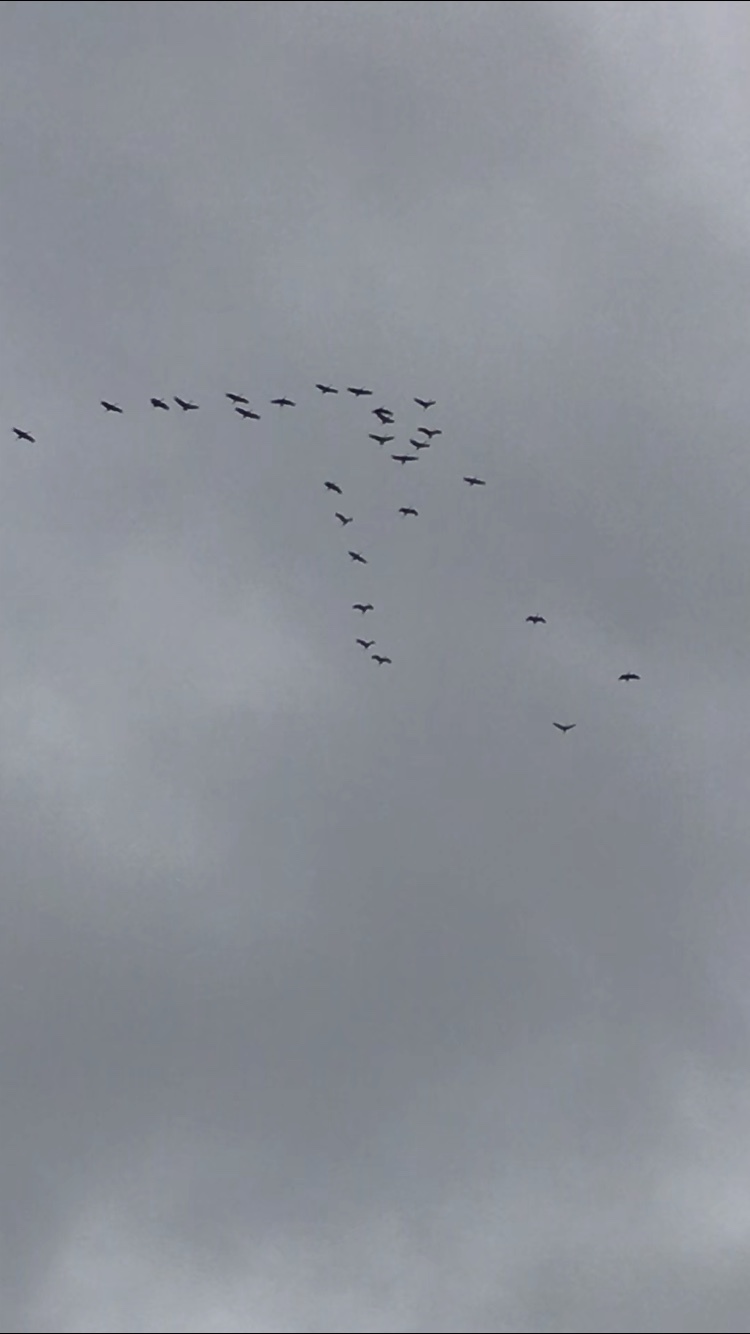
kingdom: Animalia
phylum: Chordata
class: Aves
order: Gruiformes
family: Gruidae
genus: Grus
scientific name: Grus canadensis
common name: Sandhill crane
